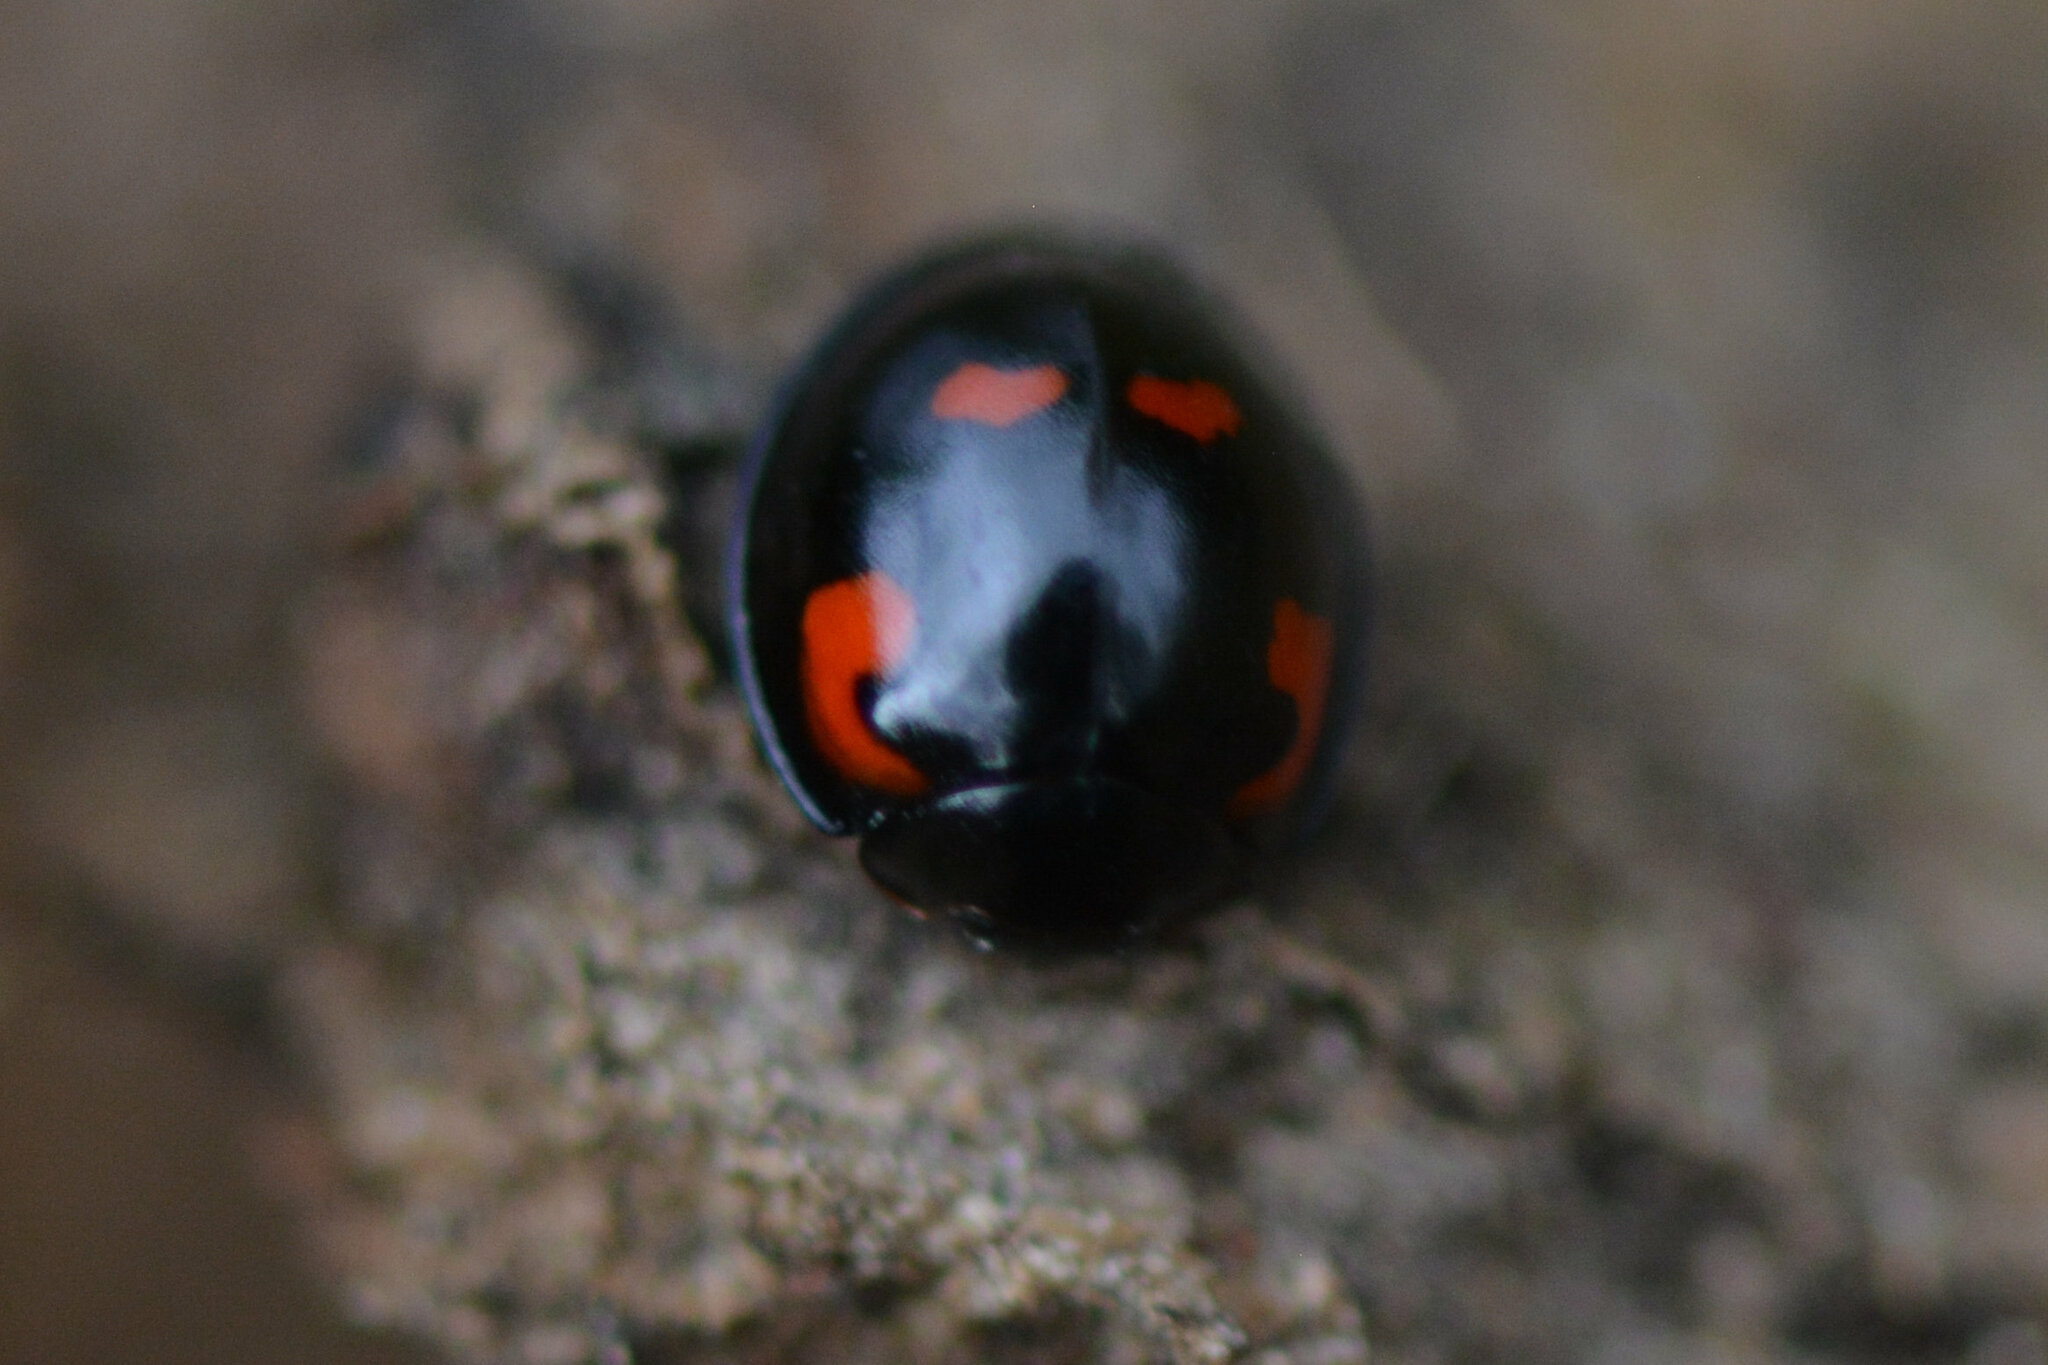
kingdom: Animalia
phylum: Arthropoda
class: Insecta
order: Coleoptera
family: Coccinellidae
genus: Brumus
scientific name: Brumus quadripustulatus
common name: Ladybird beetle
